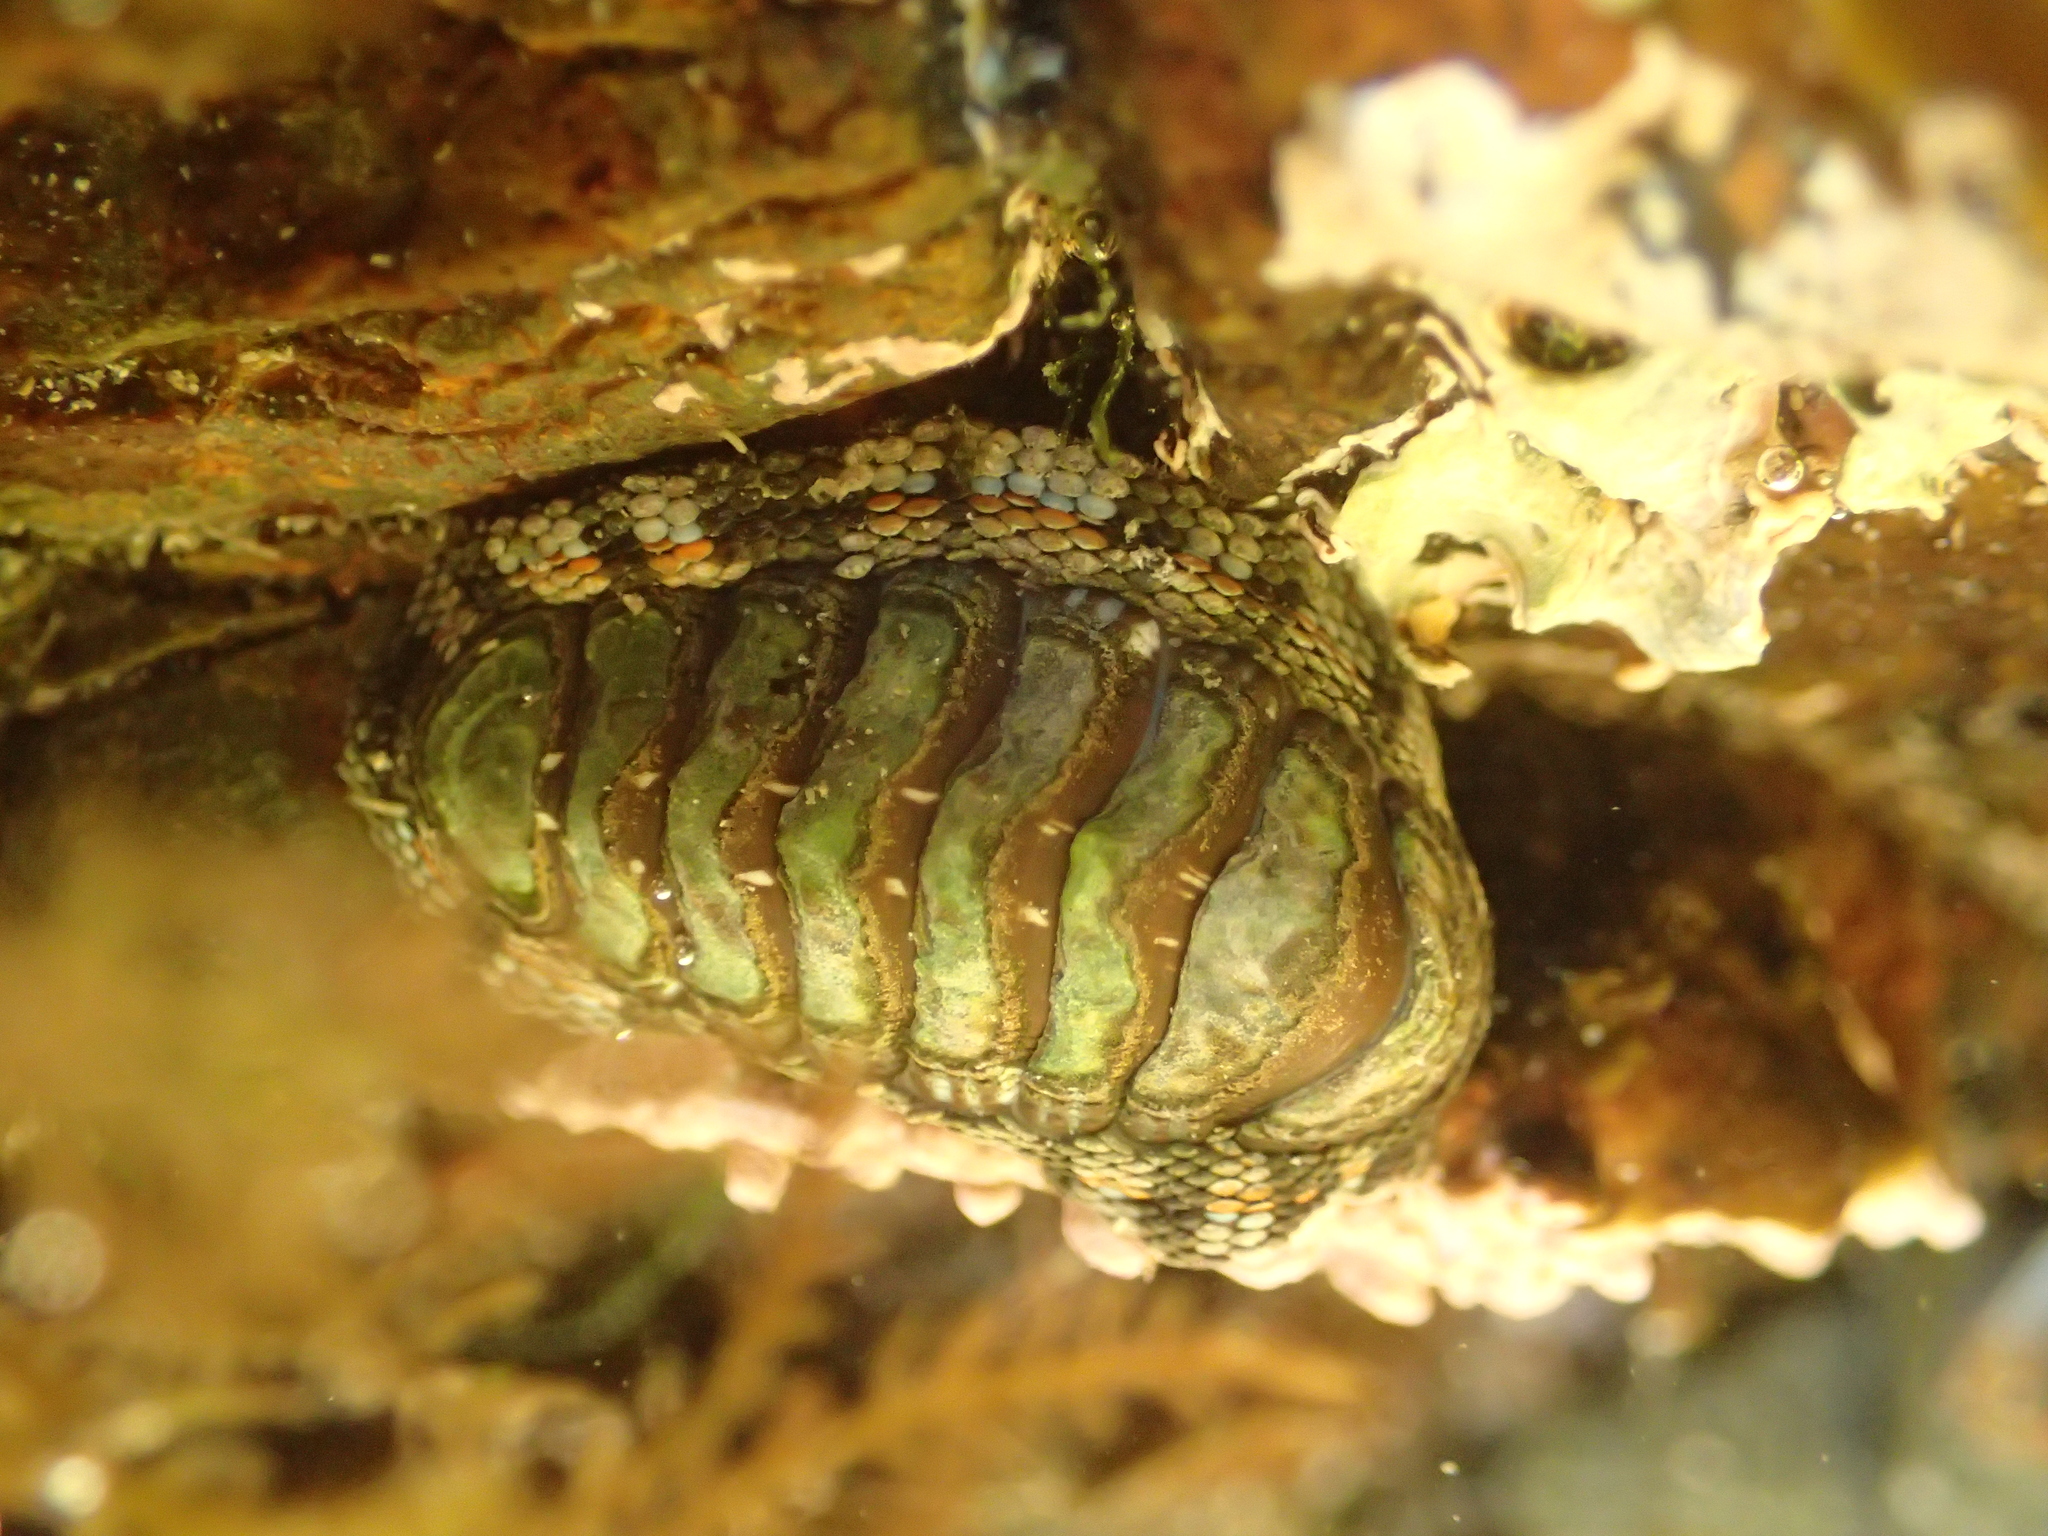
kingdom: Animalia
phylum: Mollusca
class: Polyplacophora
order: Chitonida
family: Chitonidae
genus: Sypharochiton
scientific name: Sypharochiton
